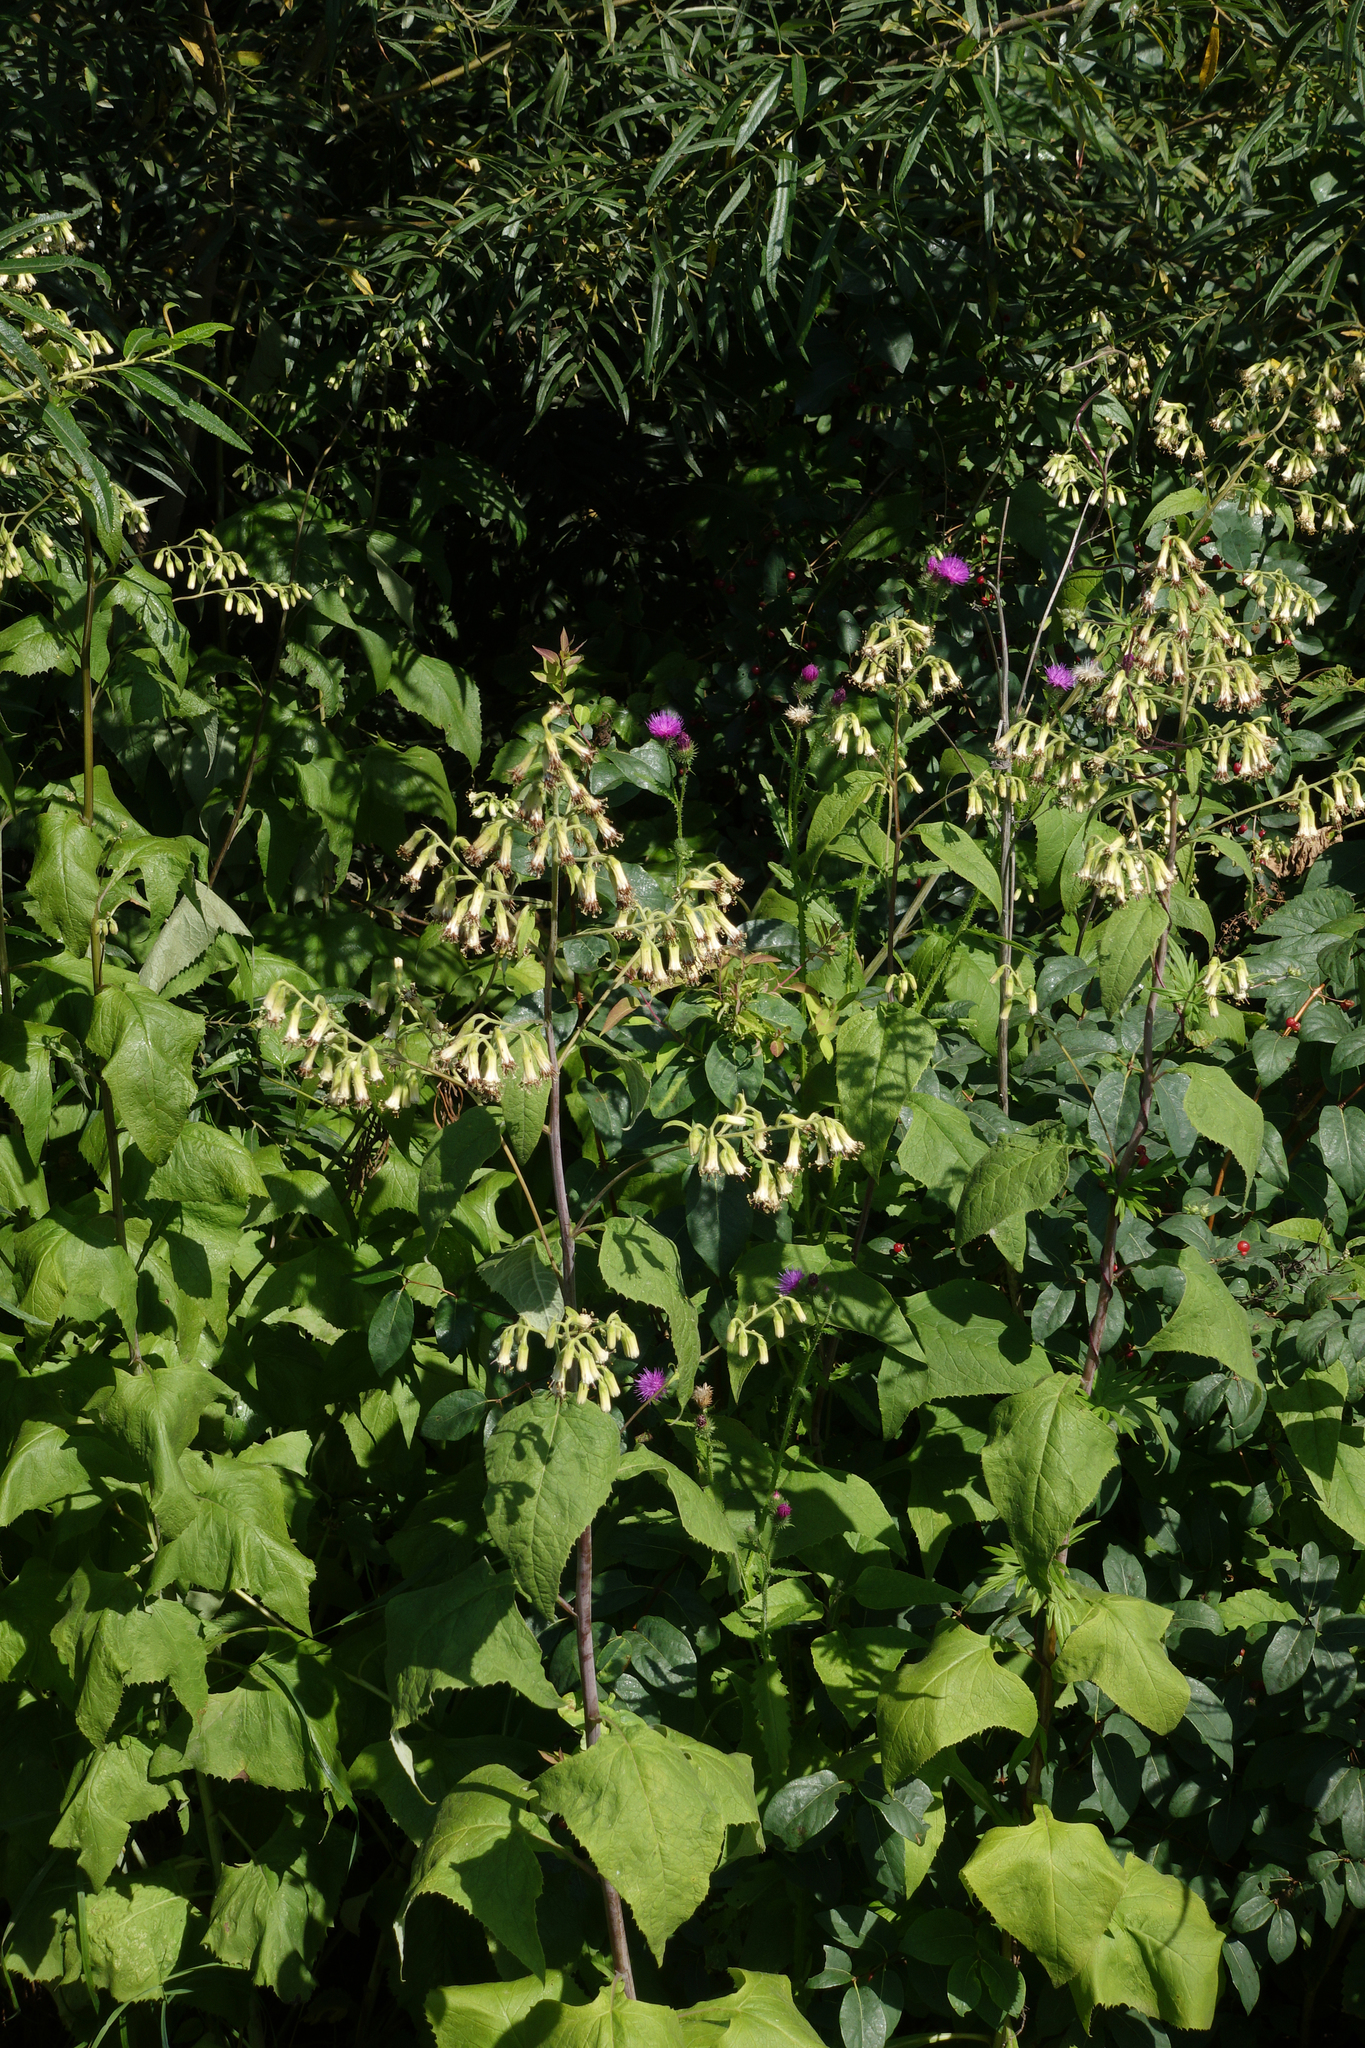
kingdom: Plantae
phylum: Tracheophyta
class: Magnoliopsida
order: Asterales
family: Asteraceae
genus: Parasenecio
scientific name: Parasenecio hastatus
